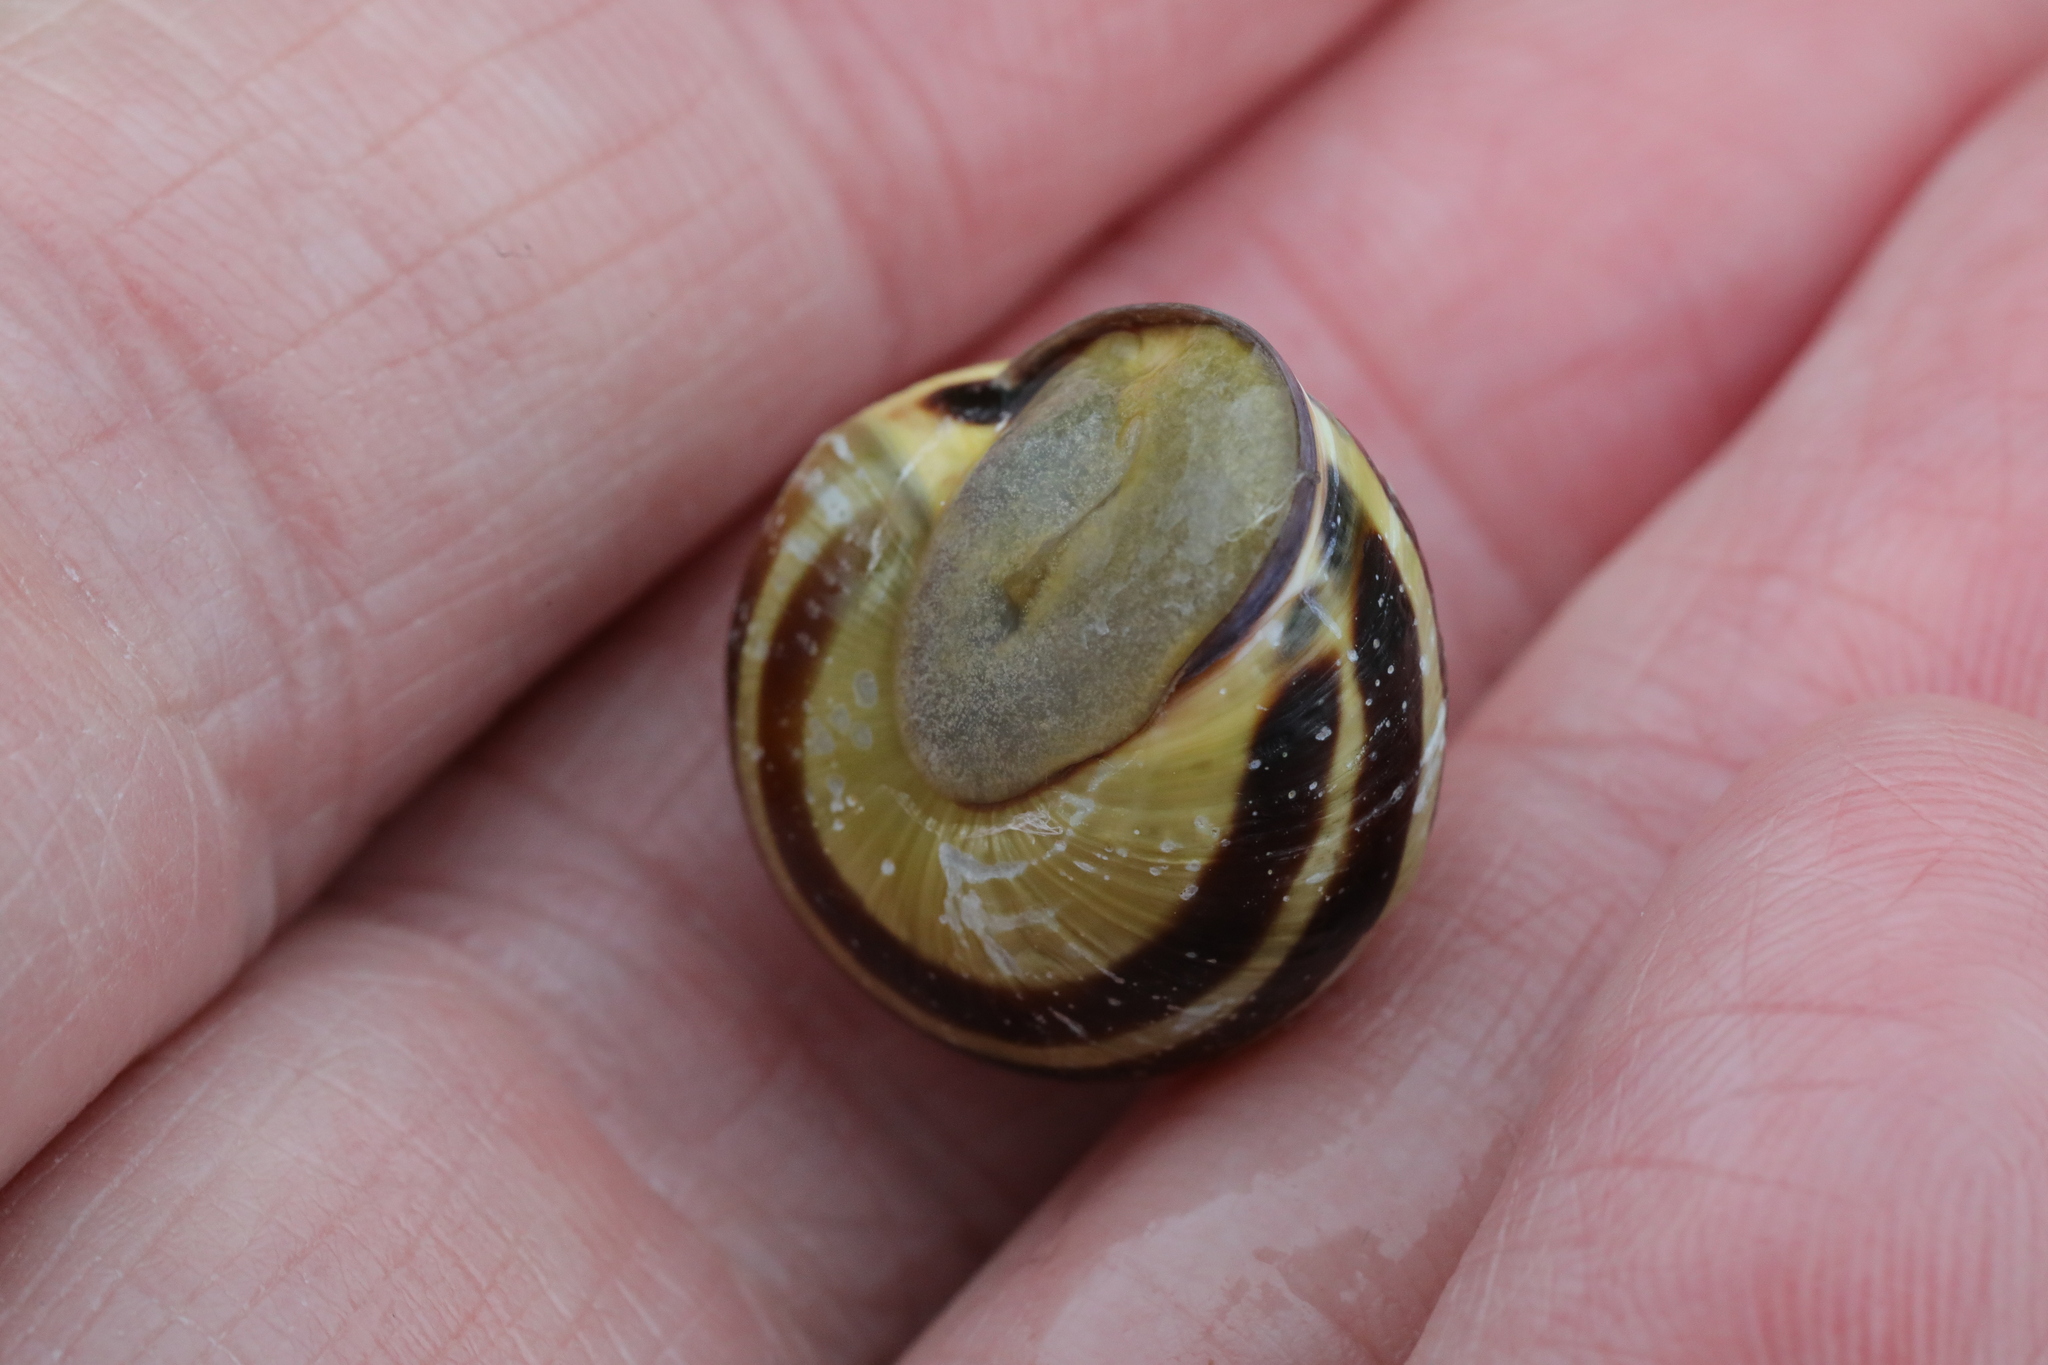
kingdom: Animalia
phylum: Mollusca
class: Gastropoda
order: Stylommatophora
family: Helicidae
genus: Cepaea
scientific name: Cepaea nemoralis
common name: Grovesnail
